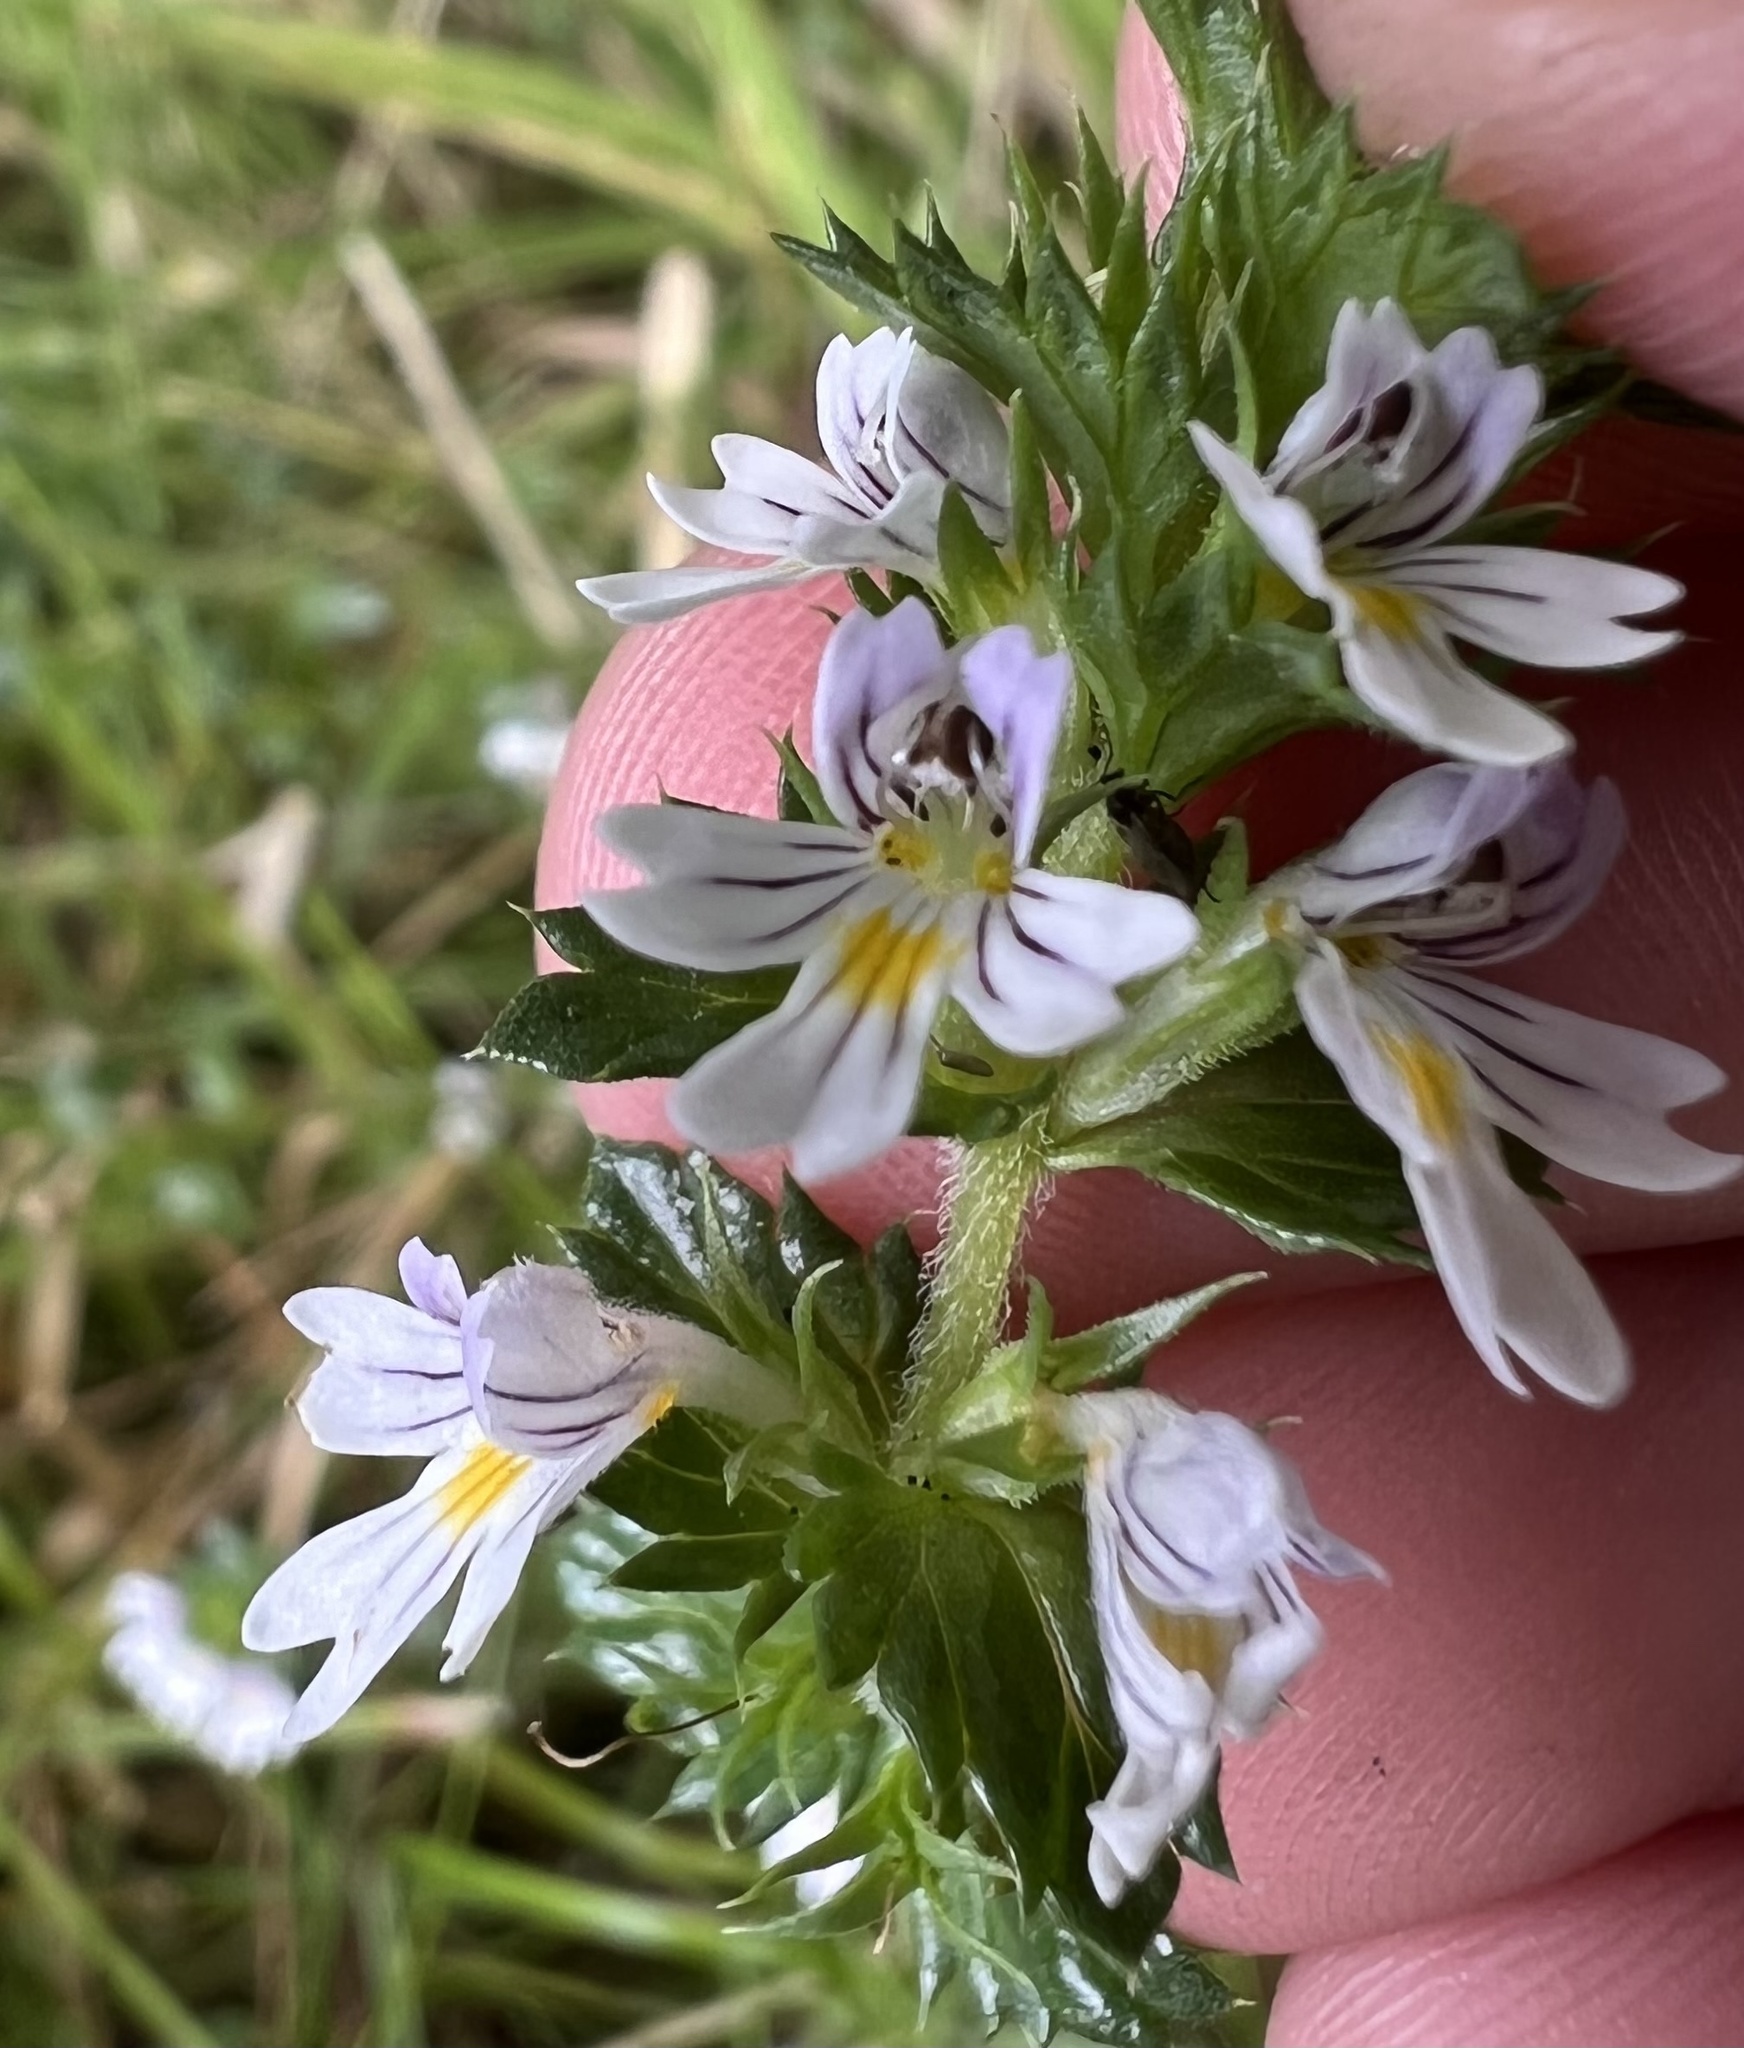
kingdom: Plantae
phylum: Tracheophyta
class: Magnoliopsida
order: Lamiales
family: Orobanchaceae
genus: Euphrasia
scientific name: Euphrasia nemorosa
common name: Common eyebright
